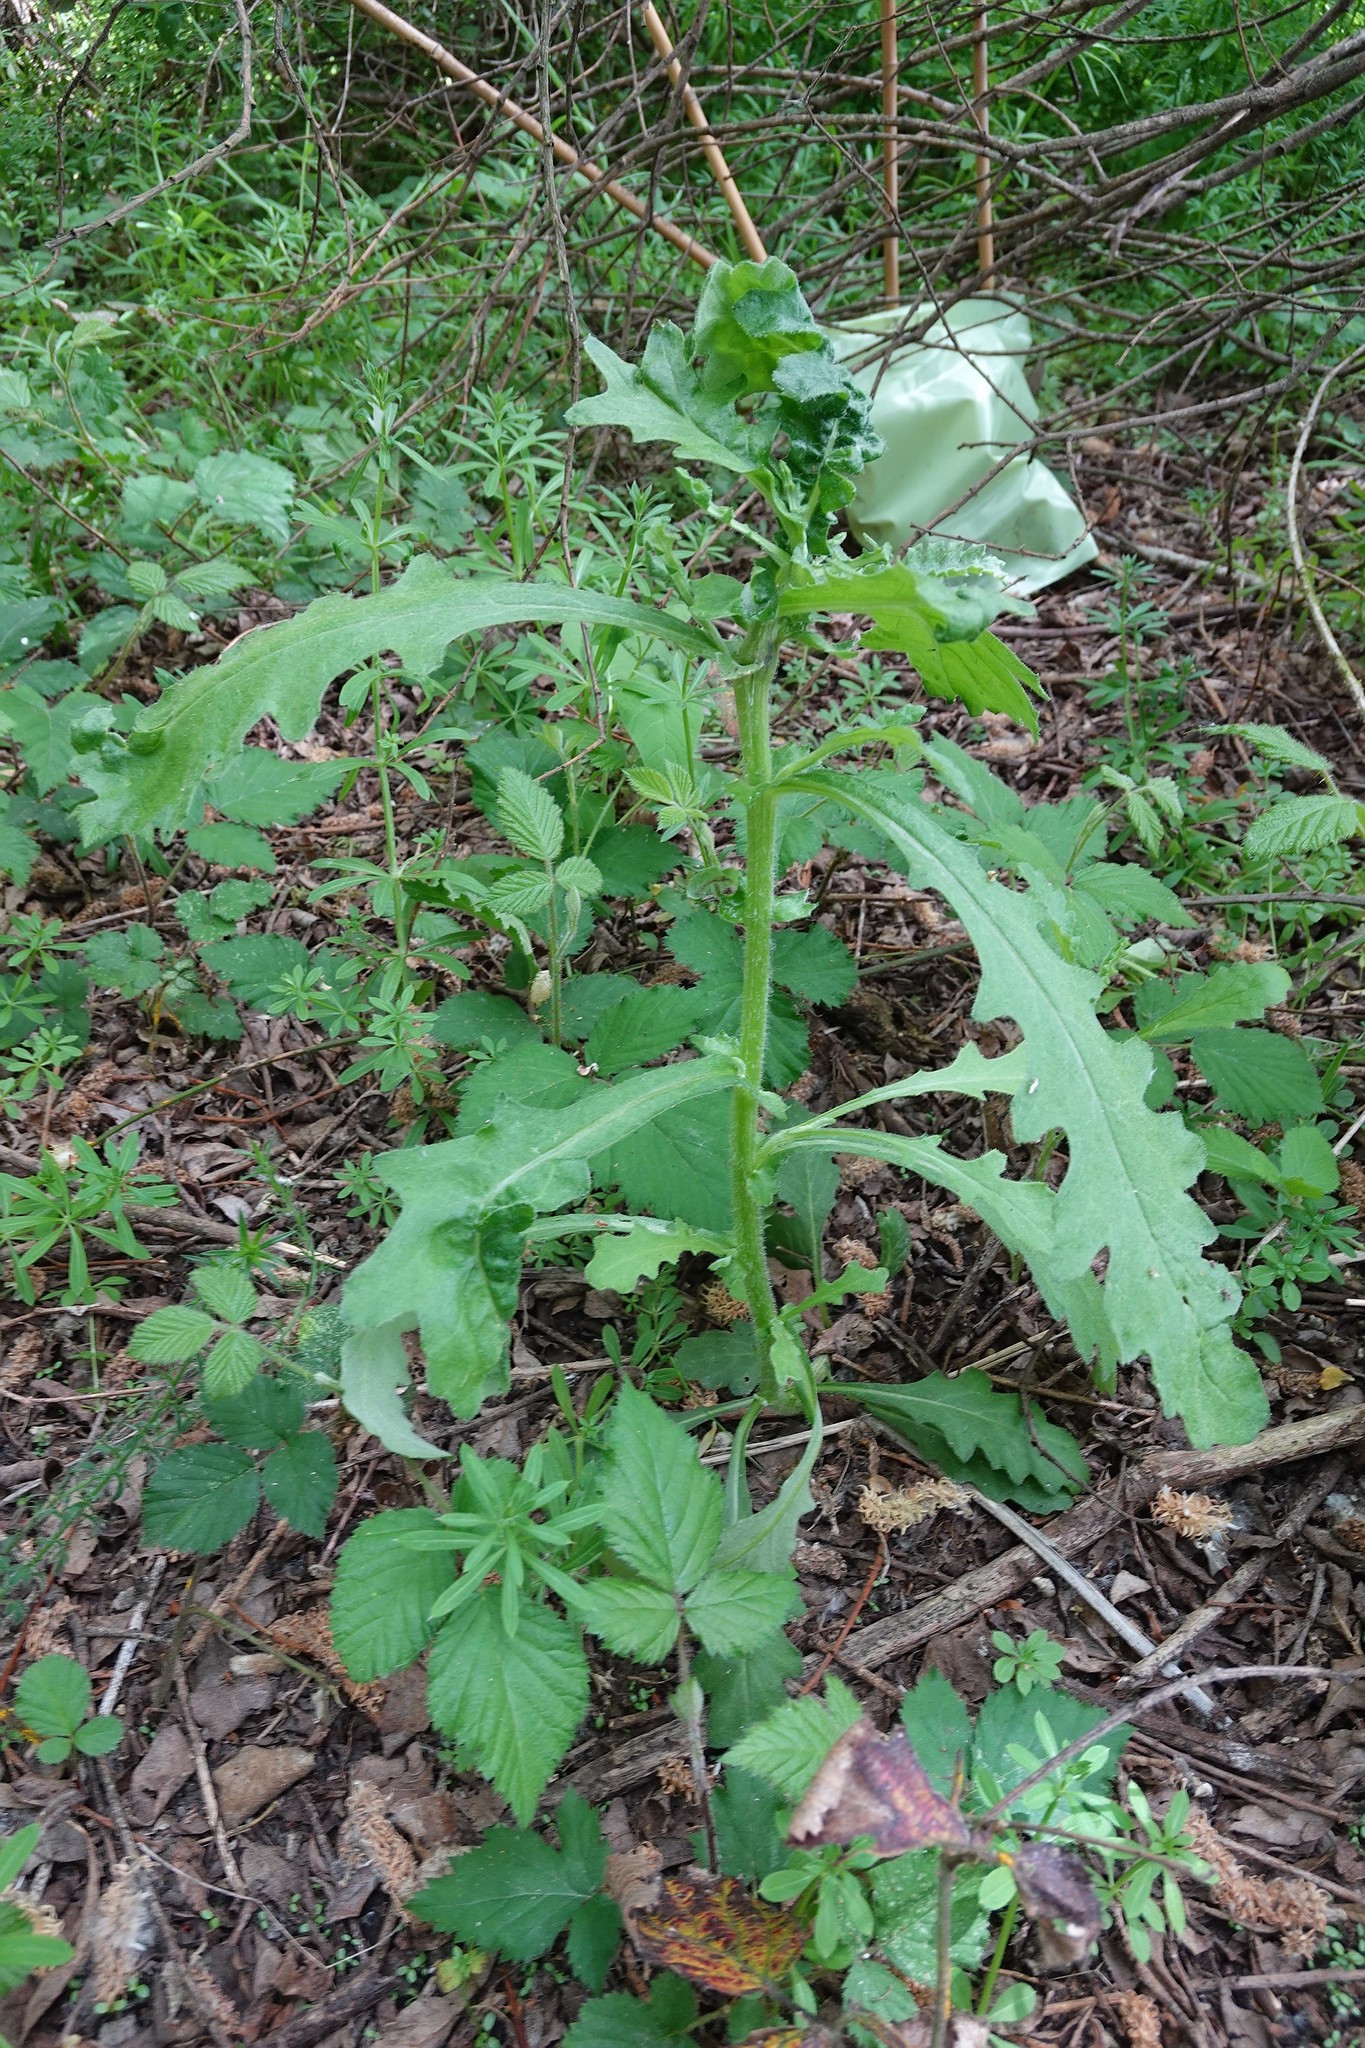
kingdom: Plantae
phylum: Tracheophyta
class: Magnoliopsida
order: Asterales
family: Asteraceae
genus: Senecio
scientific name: Senecio glomeratus
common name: Cutleaf burnweed
